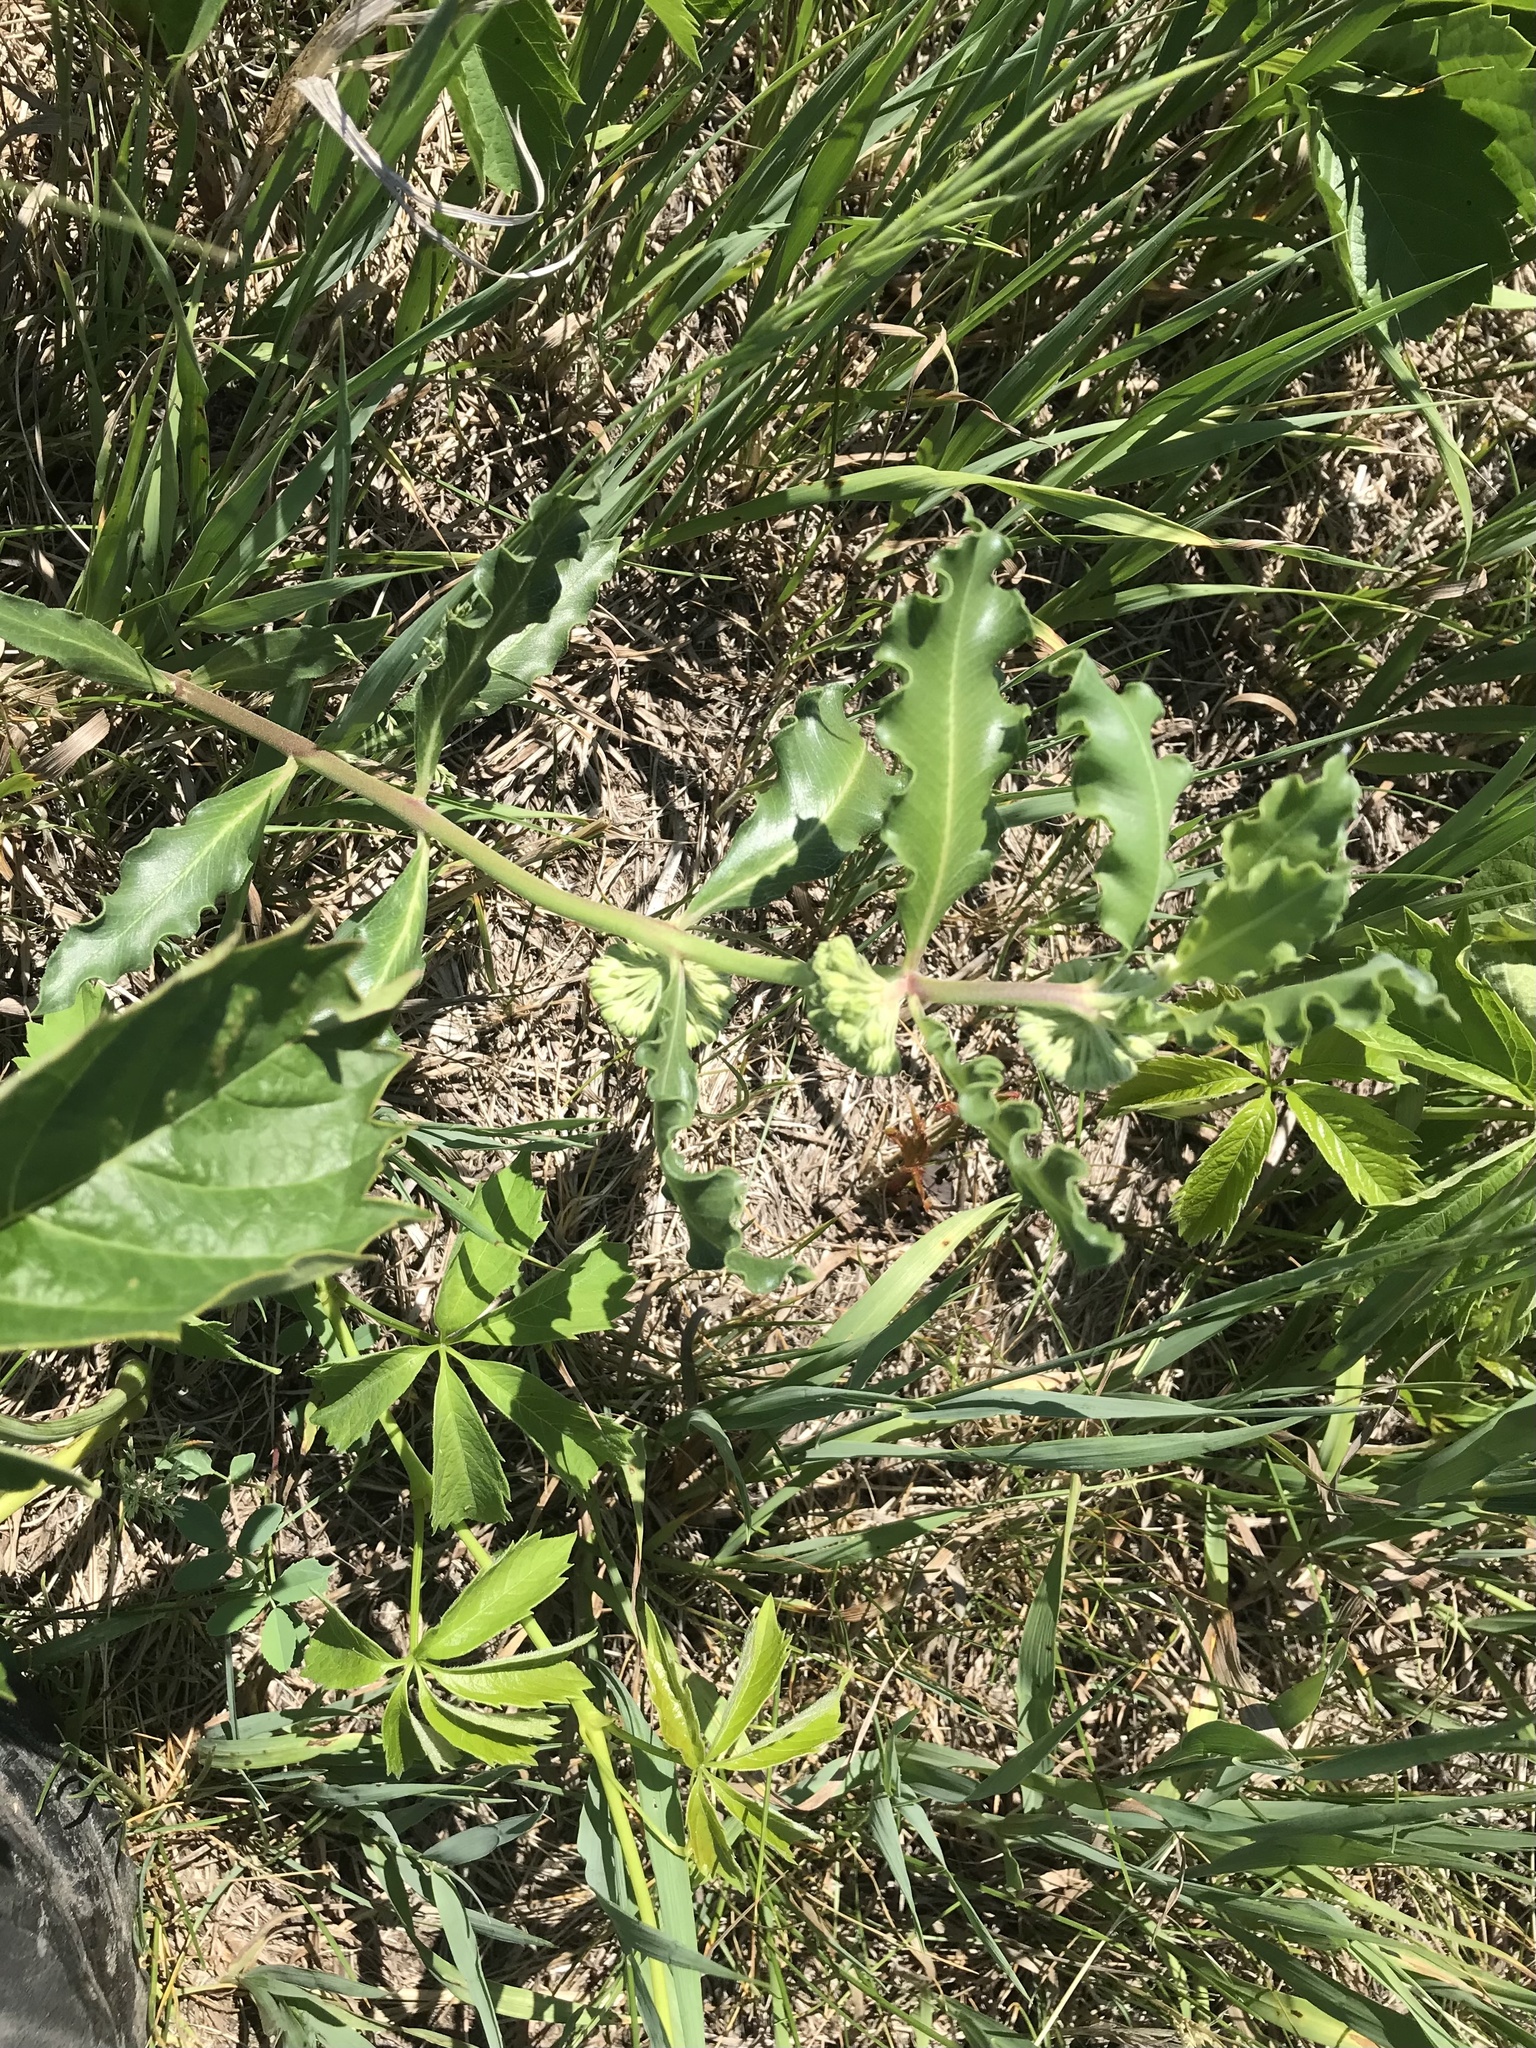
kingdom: Plantae
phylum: Tracheophyta
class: Magnoliopsida
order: Gentianales
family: Apocynaceae
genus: Asclepias
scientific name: Asclepias viridiflora
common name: Green comet milkweed
